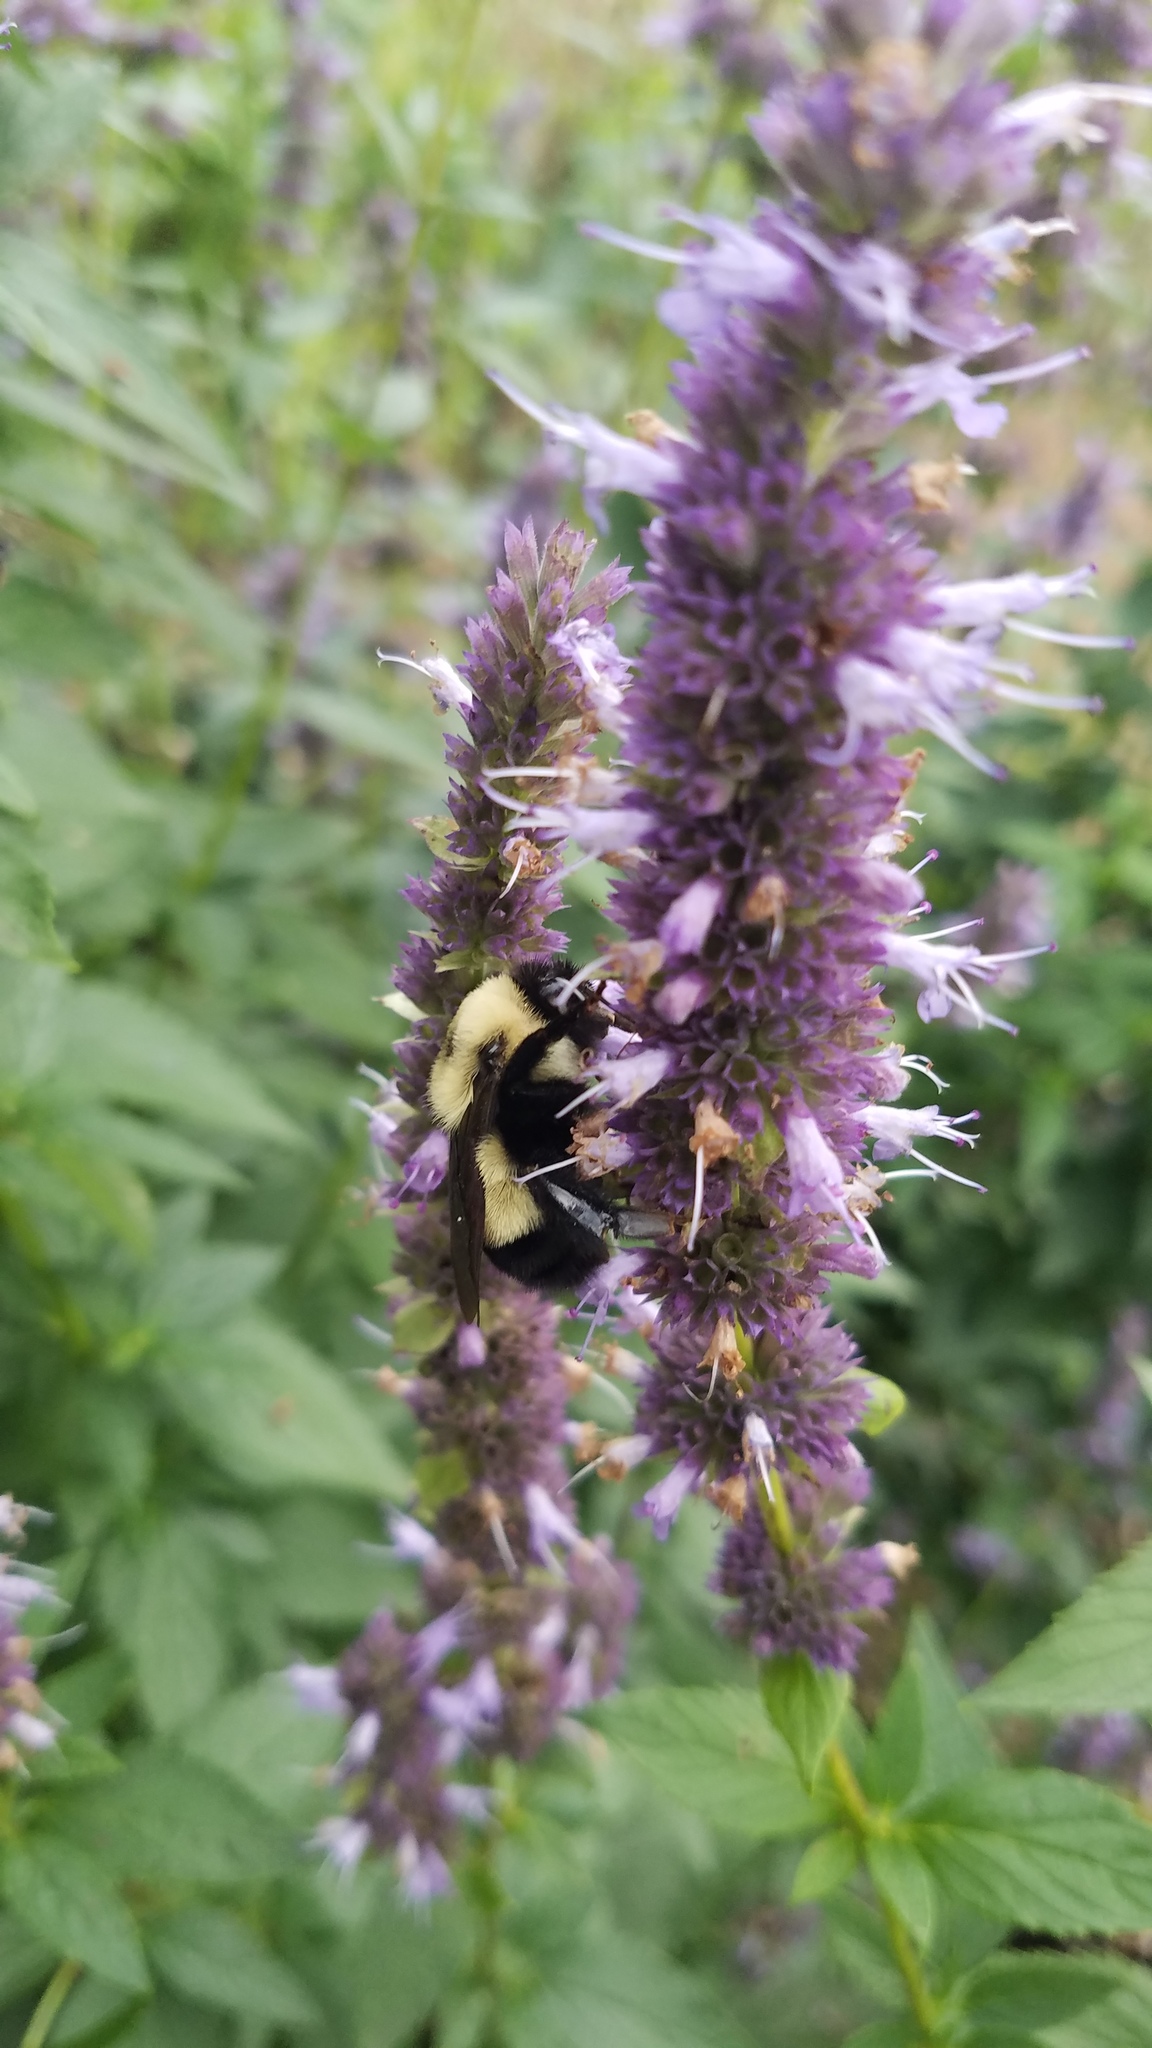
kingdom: Animalia
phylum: Arthropoda
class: Insecta
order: Hymenoptera
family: Apidae
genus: Bombus
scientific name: Bombus affinis
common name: Rusty patched bumble bee
